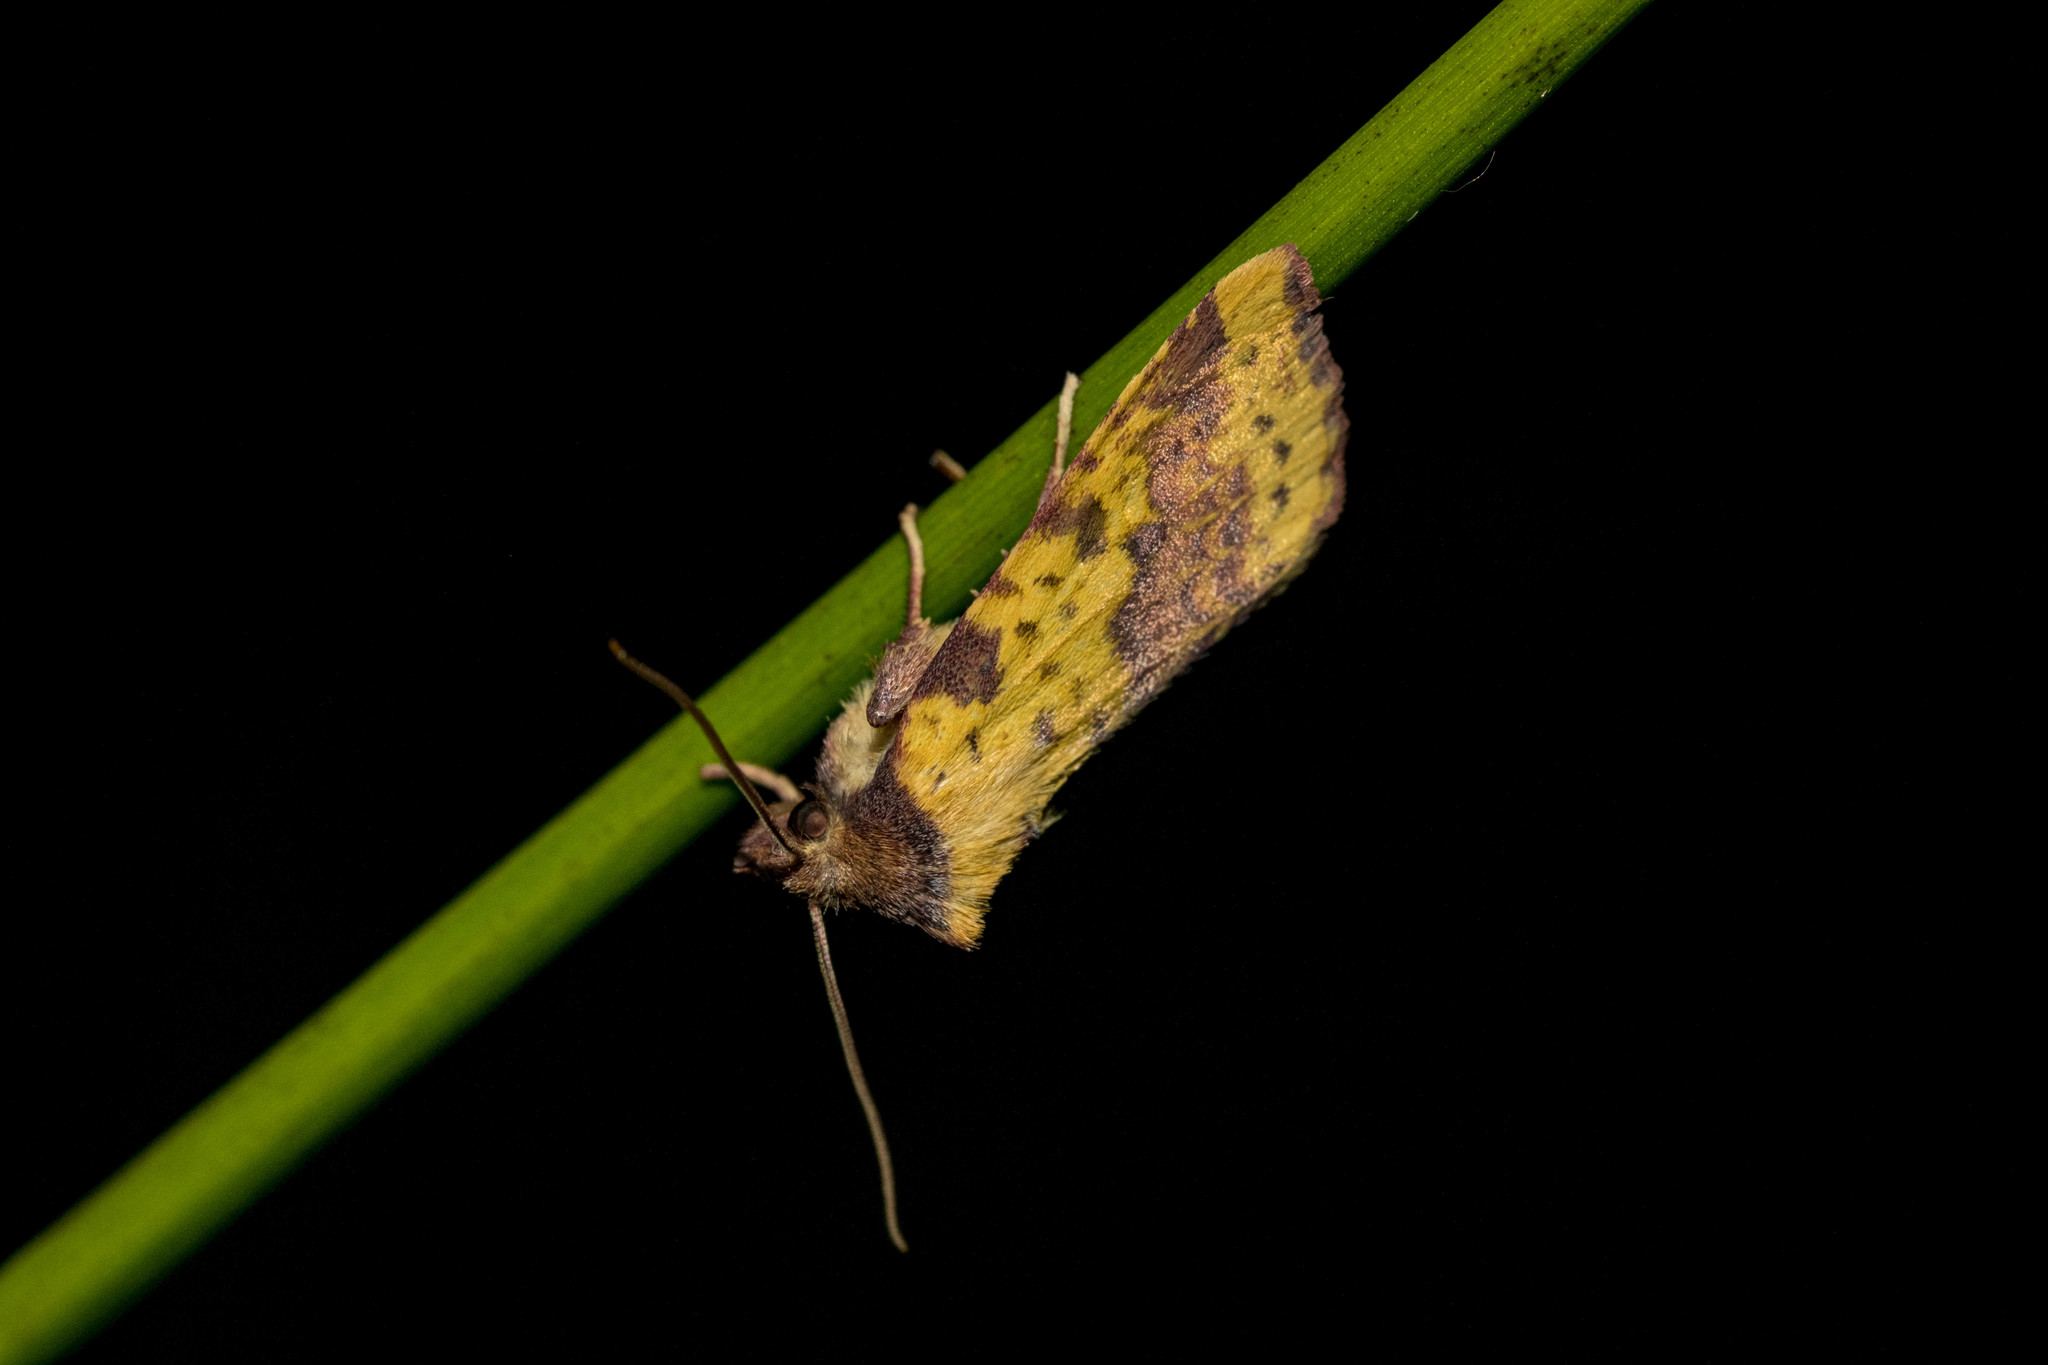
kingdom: Animalia
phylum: Arthropoda
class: Insecta
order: Lepidoptera
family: Noctuidae
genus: Xanthia
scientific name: Xanthia togata
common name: Pink-barred sallow
